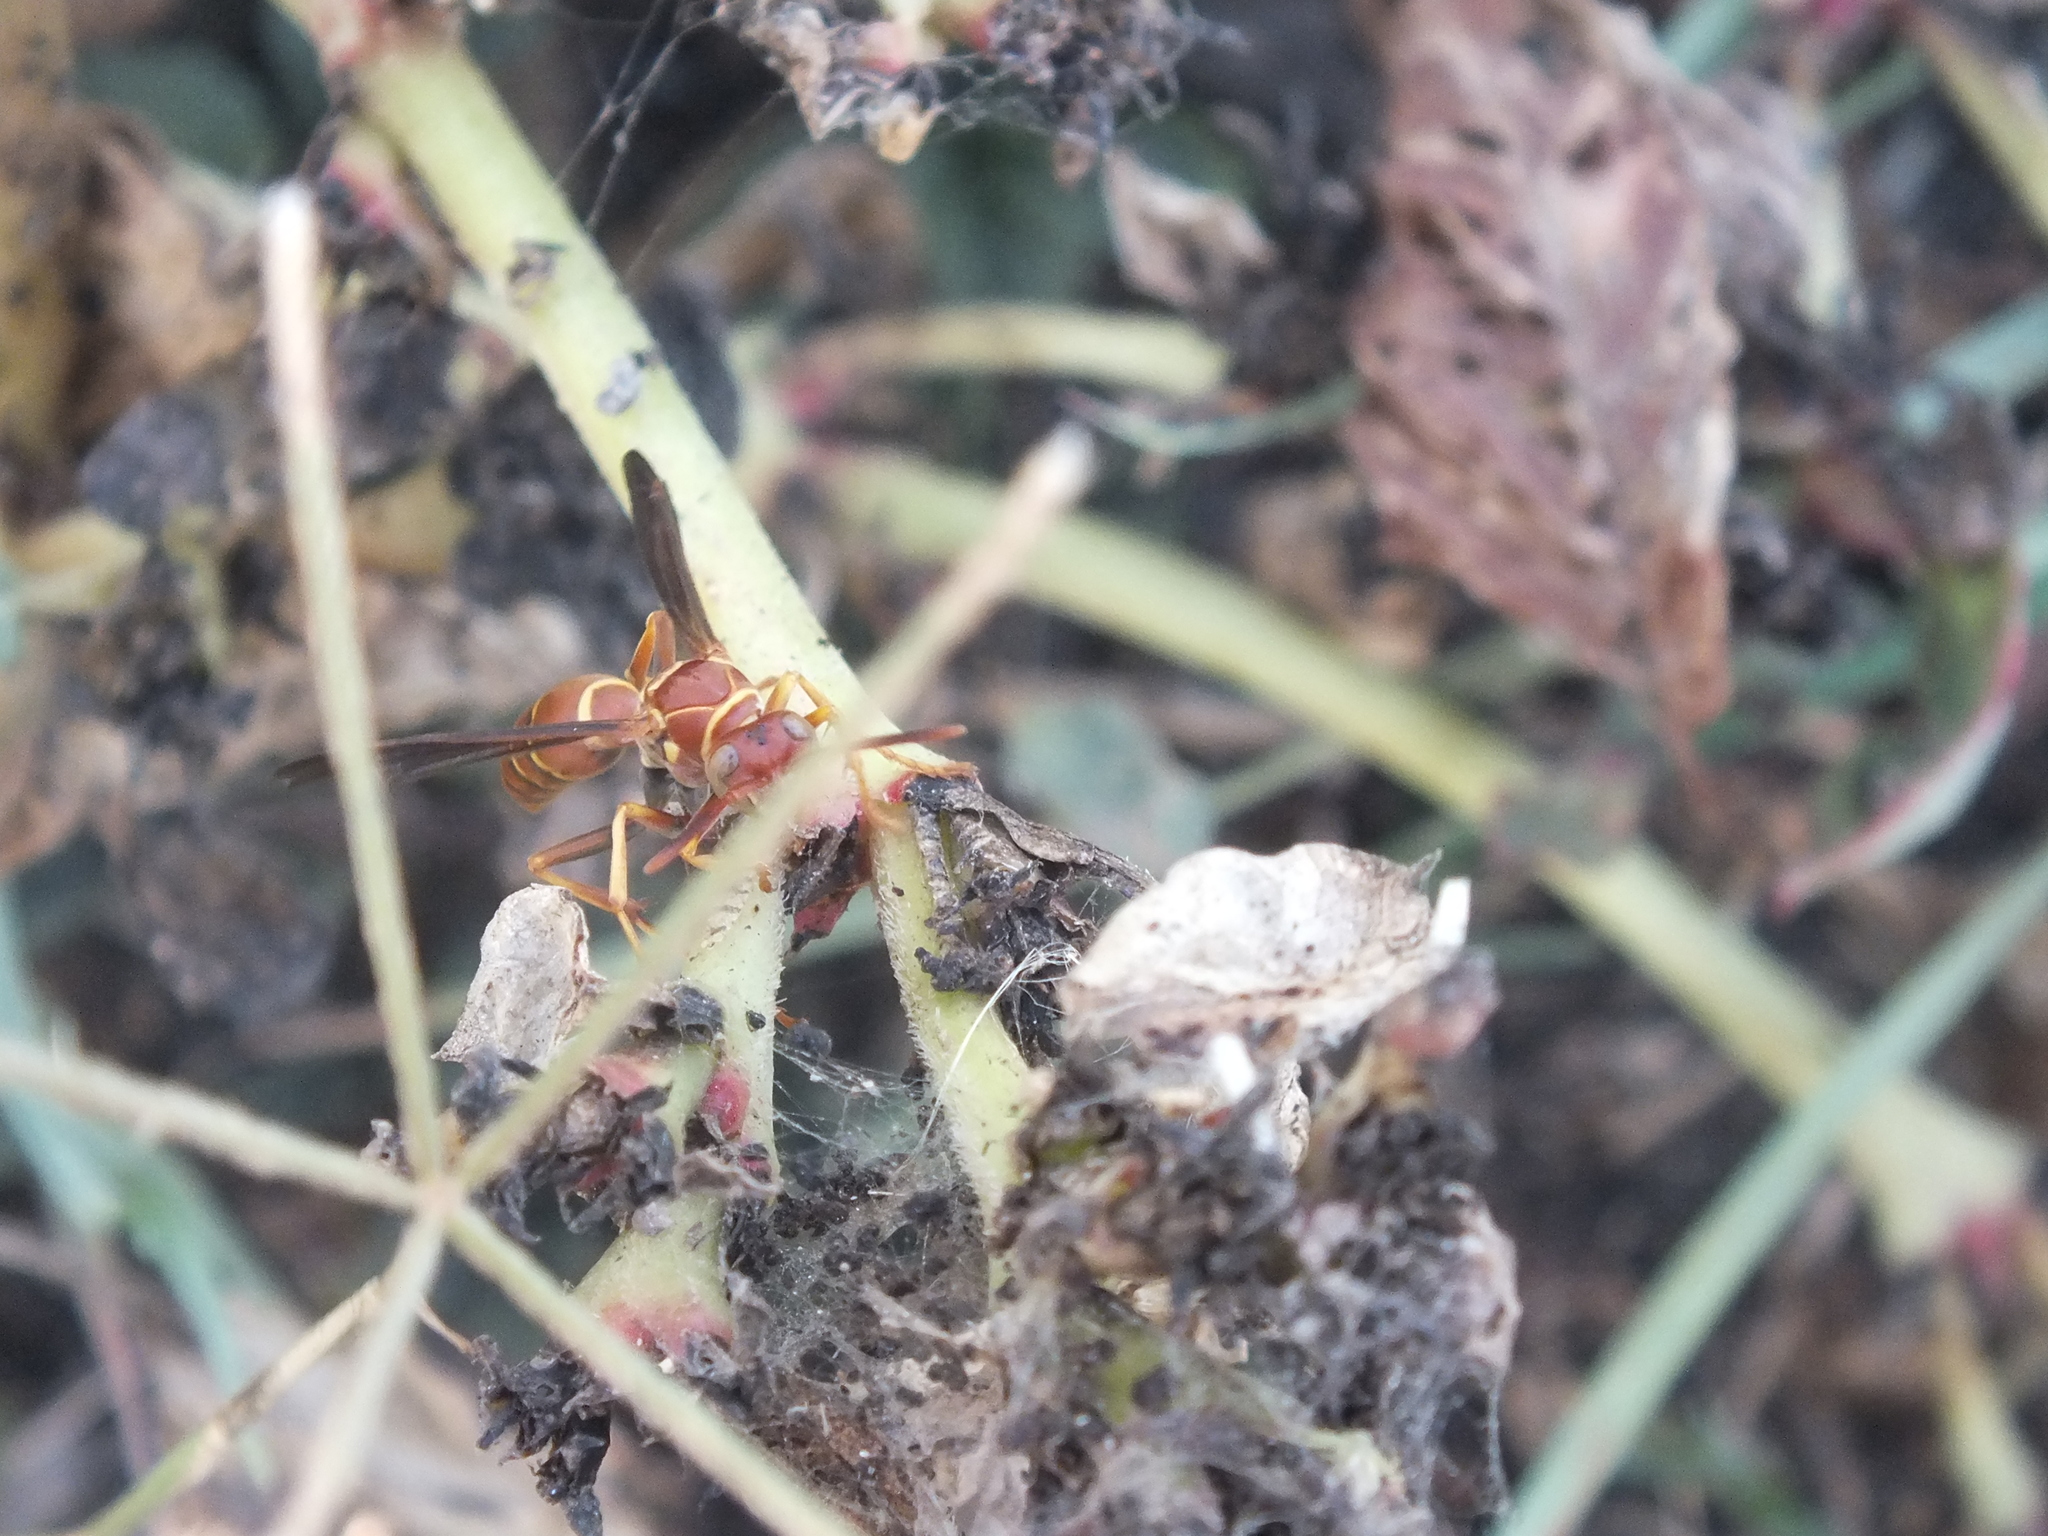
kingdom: Animalia
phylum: Arthropoda
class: Insecta
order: Hymenoptera
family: Eumenidae
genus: Polistes
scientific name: Polistes dorsalis
